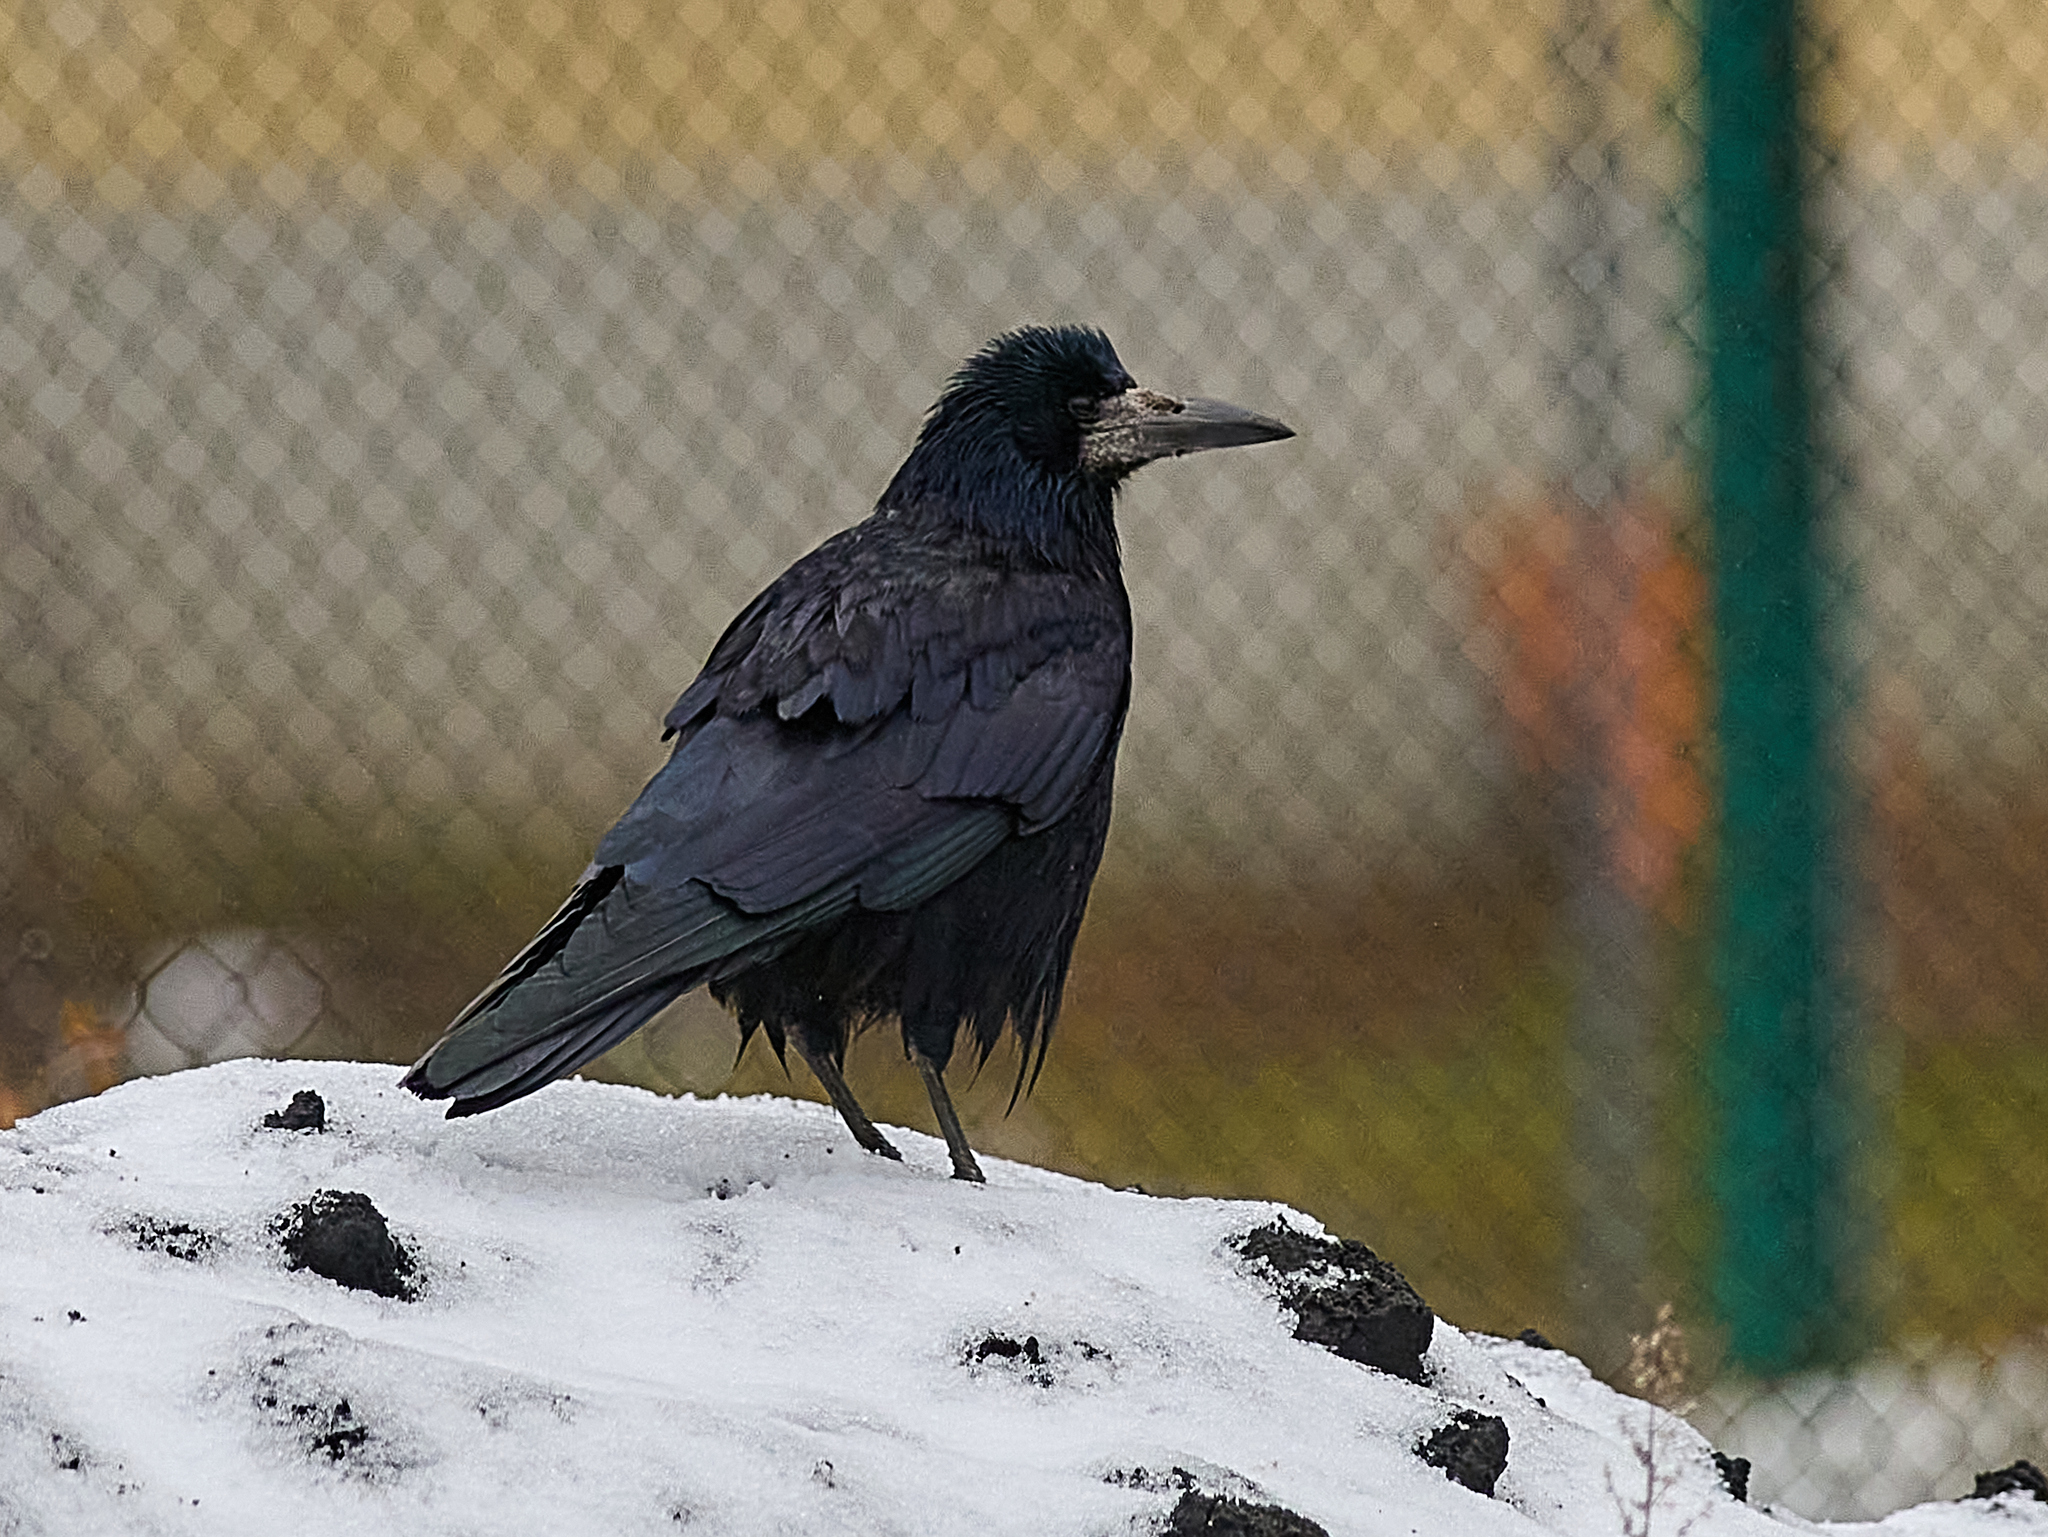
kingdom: Animalia
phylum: Chordata
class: Aves
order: Passeriformes
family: Corvidae
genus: Corvus
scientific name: Corvus frugilegus
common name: Rook
